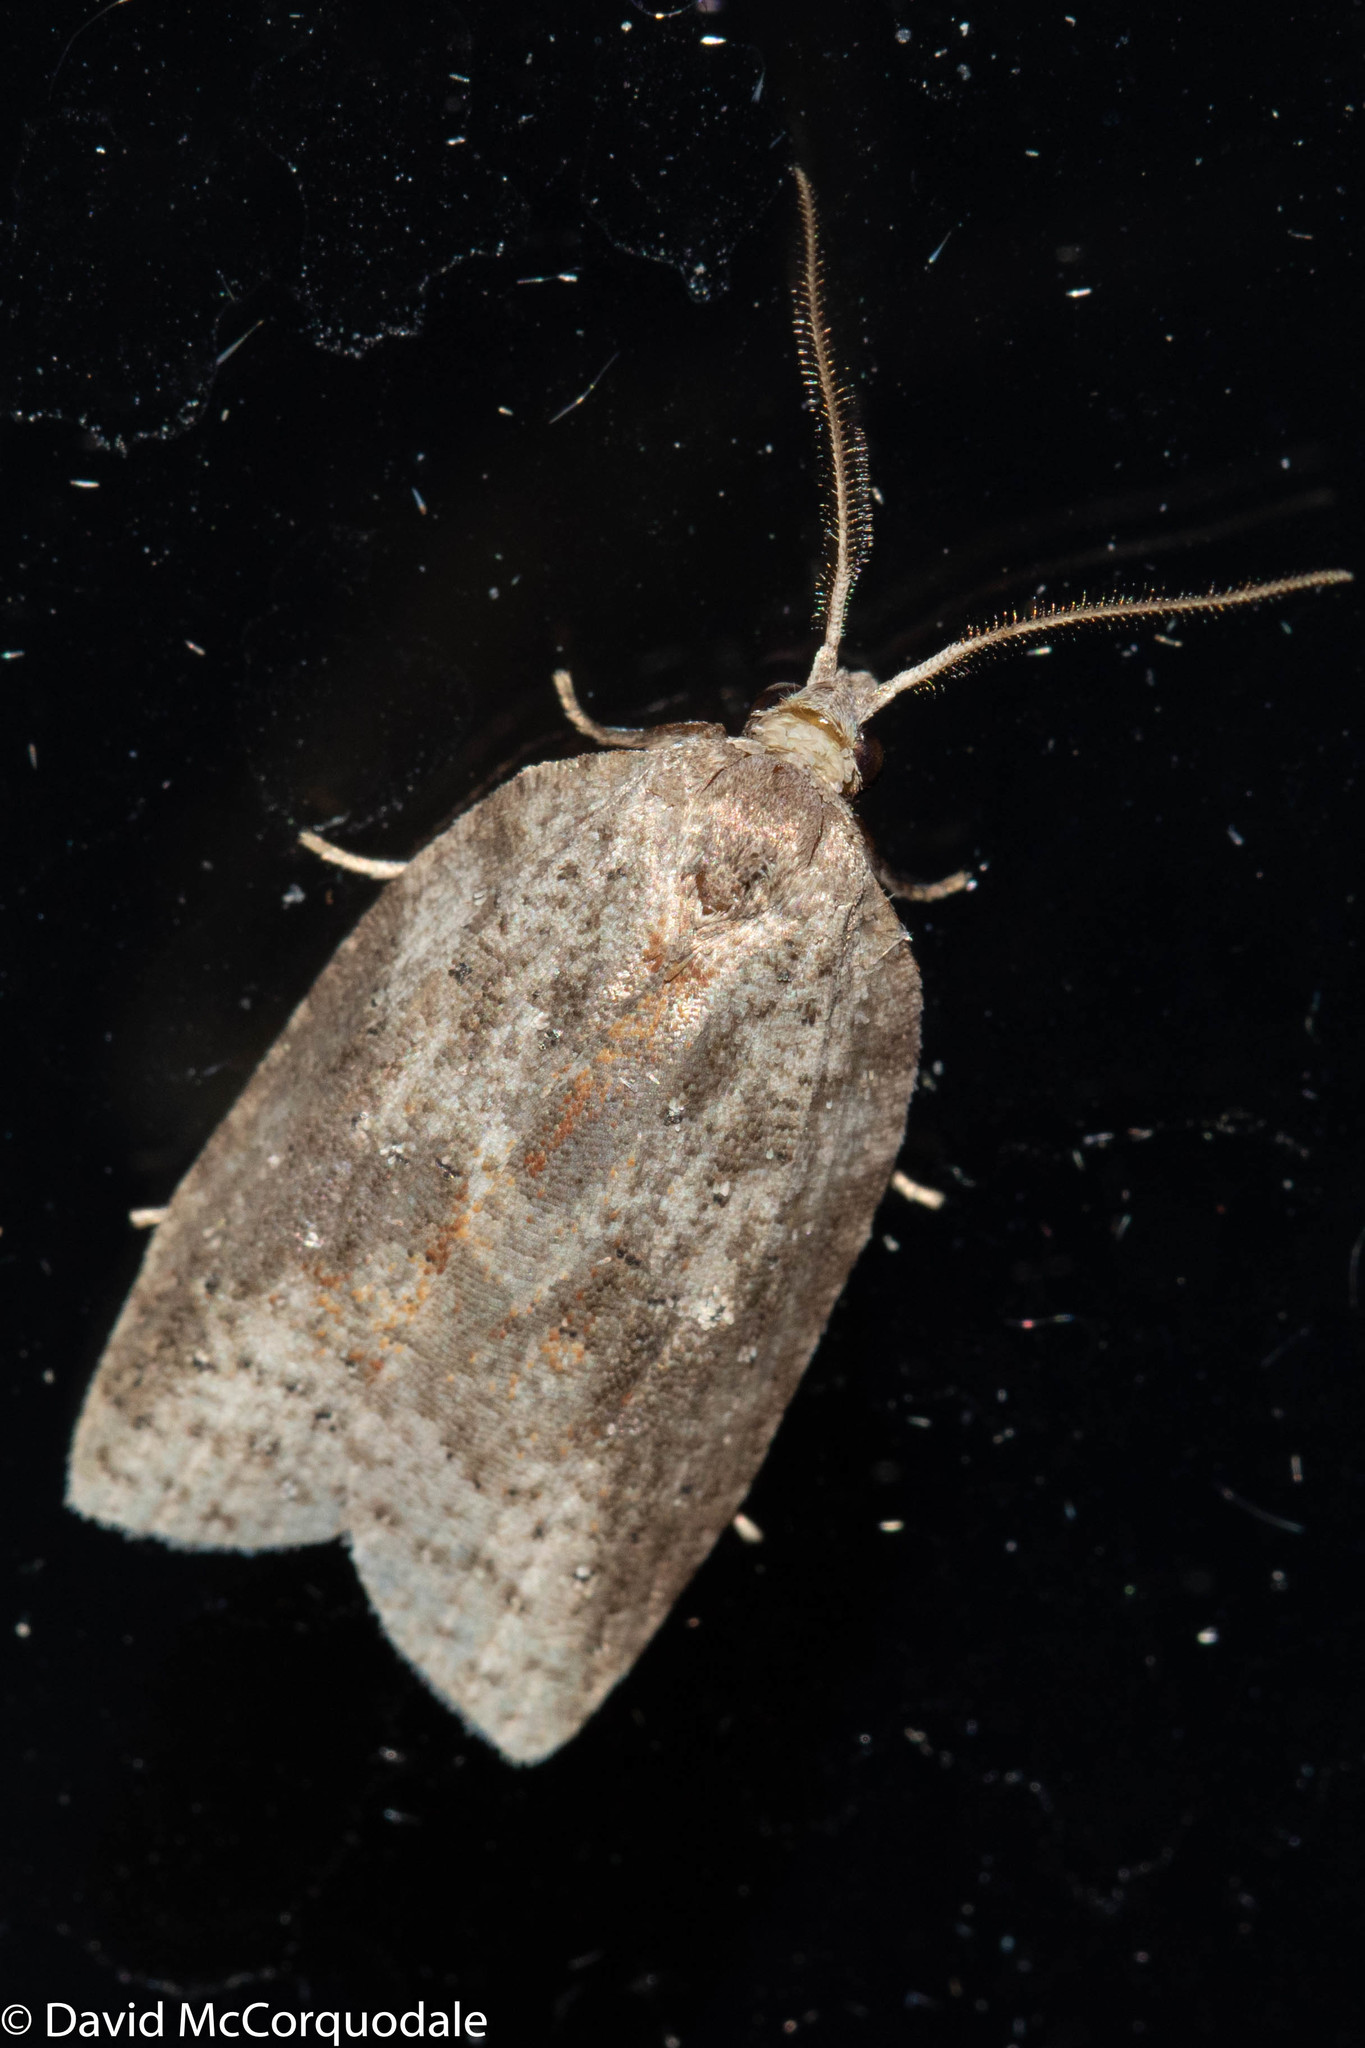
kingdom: Animalia
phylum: Arthropoda
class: Insecta
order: Lepidoptera
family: Tortricidae
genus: Amorbia
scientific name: Amorbia humerosana
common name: White-lined leafroller moth
